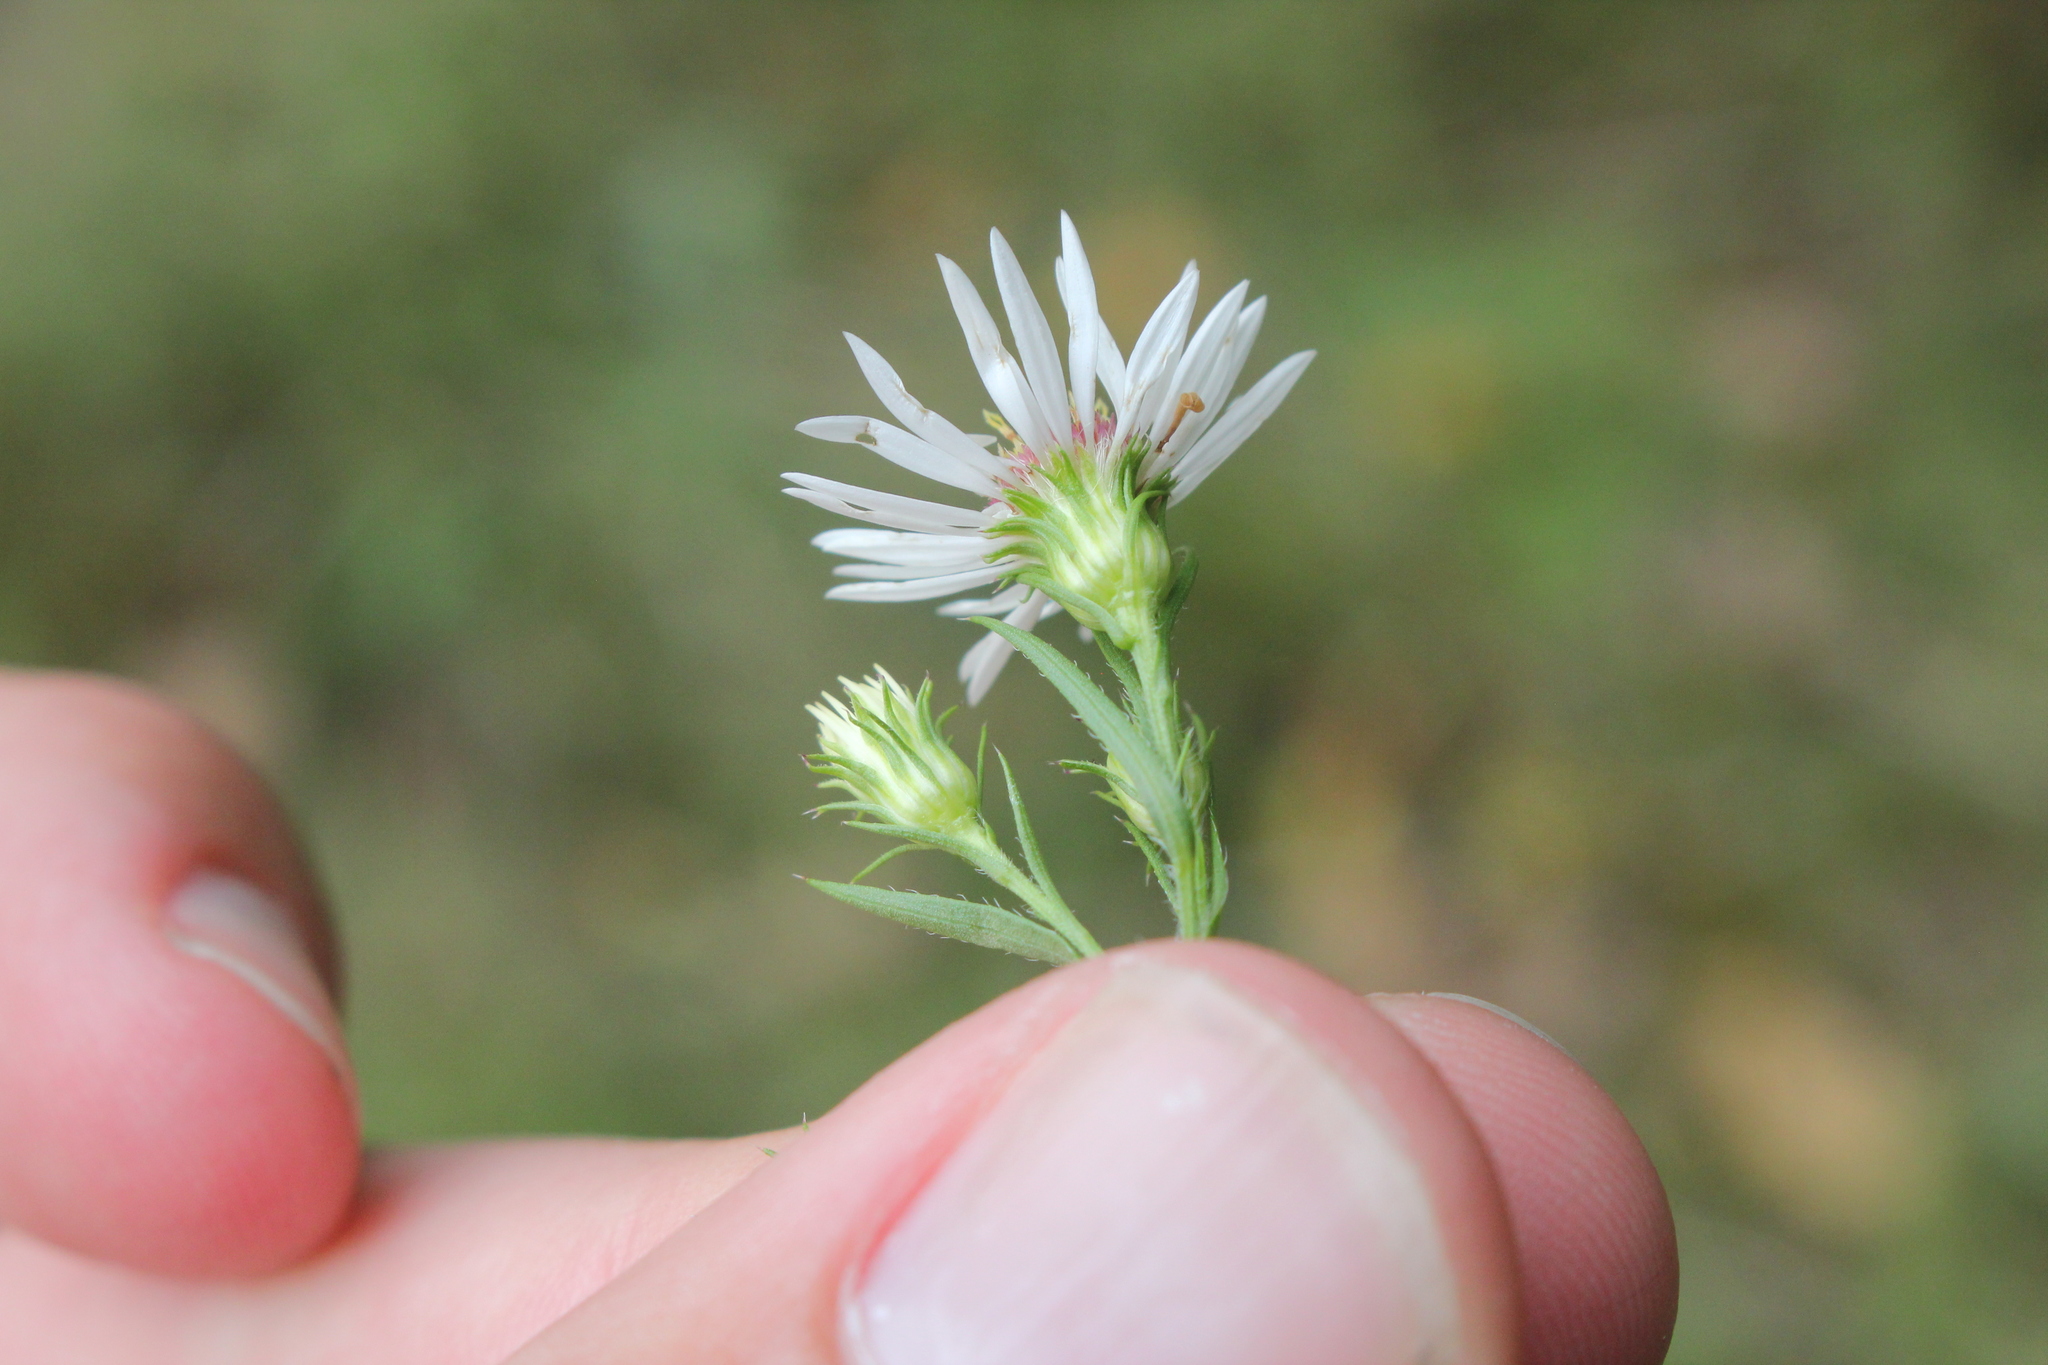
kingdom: Plantae
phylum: Tracheophyta
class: Magnoliopsida
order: Asterales
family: Asteraceae
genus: Symphyotrichum
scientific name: Symphyotrichum pilosum
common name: Awl aster
